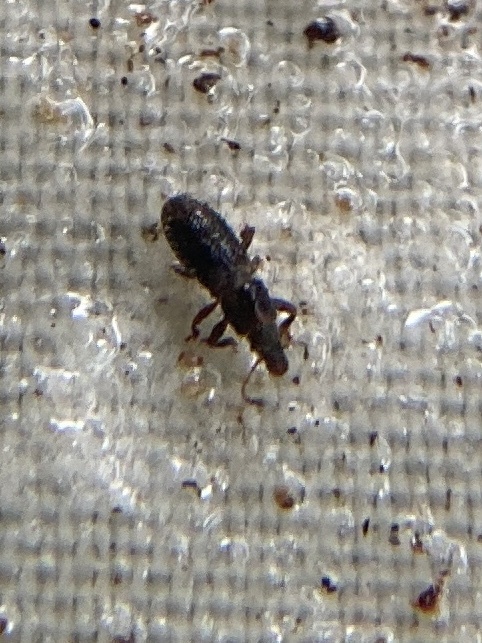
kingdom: Animalia
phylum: Arthropoda
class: Insecta
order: Coleoptera
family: Belidae
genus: Proterhinus
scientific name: Proterhinus brevicornis
